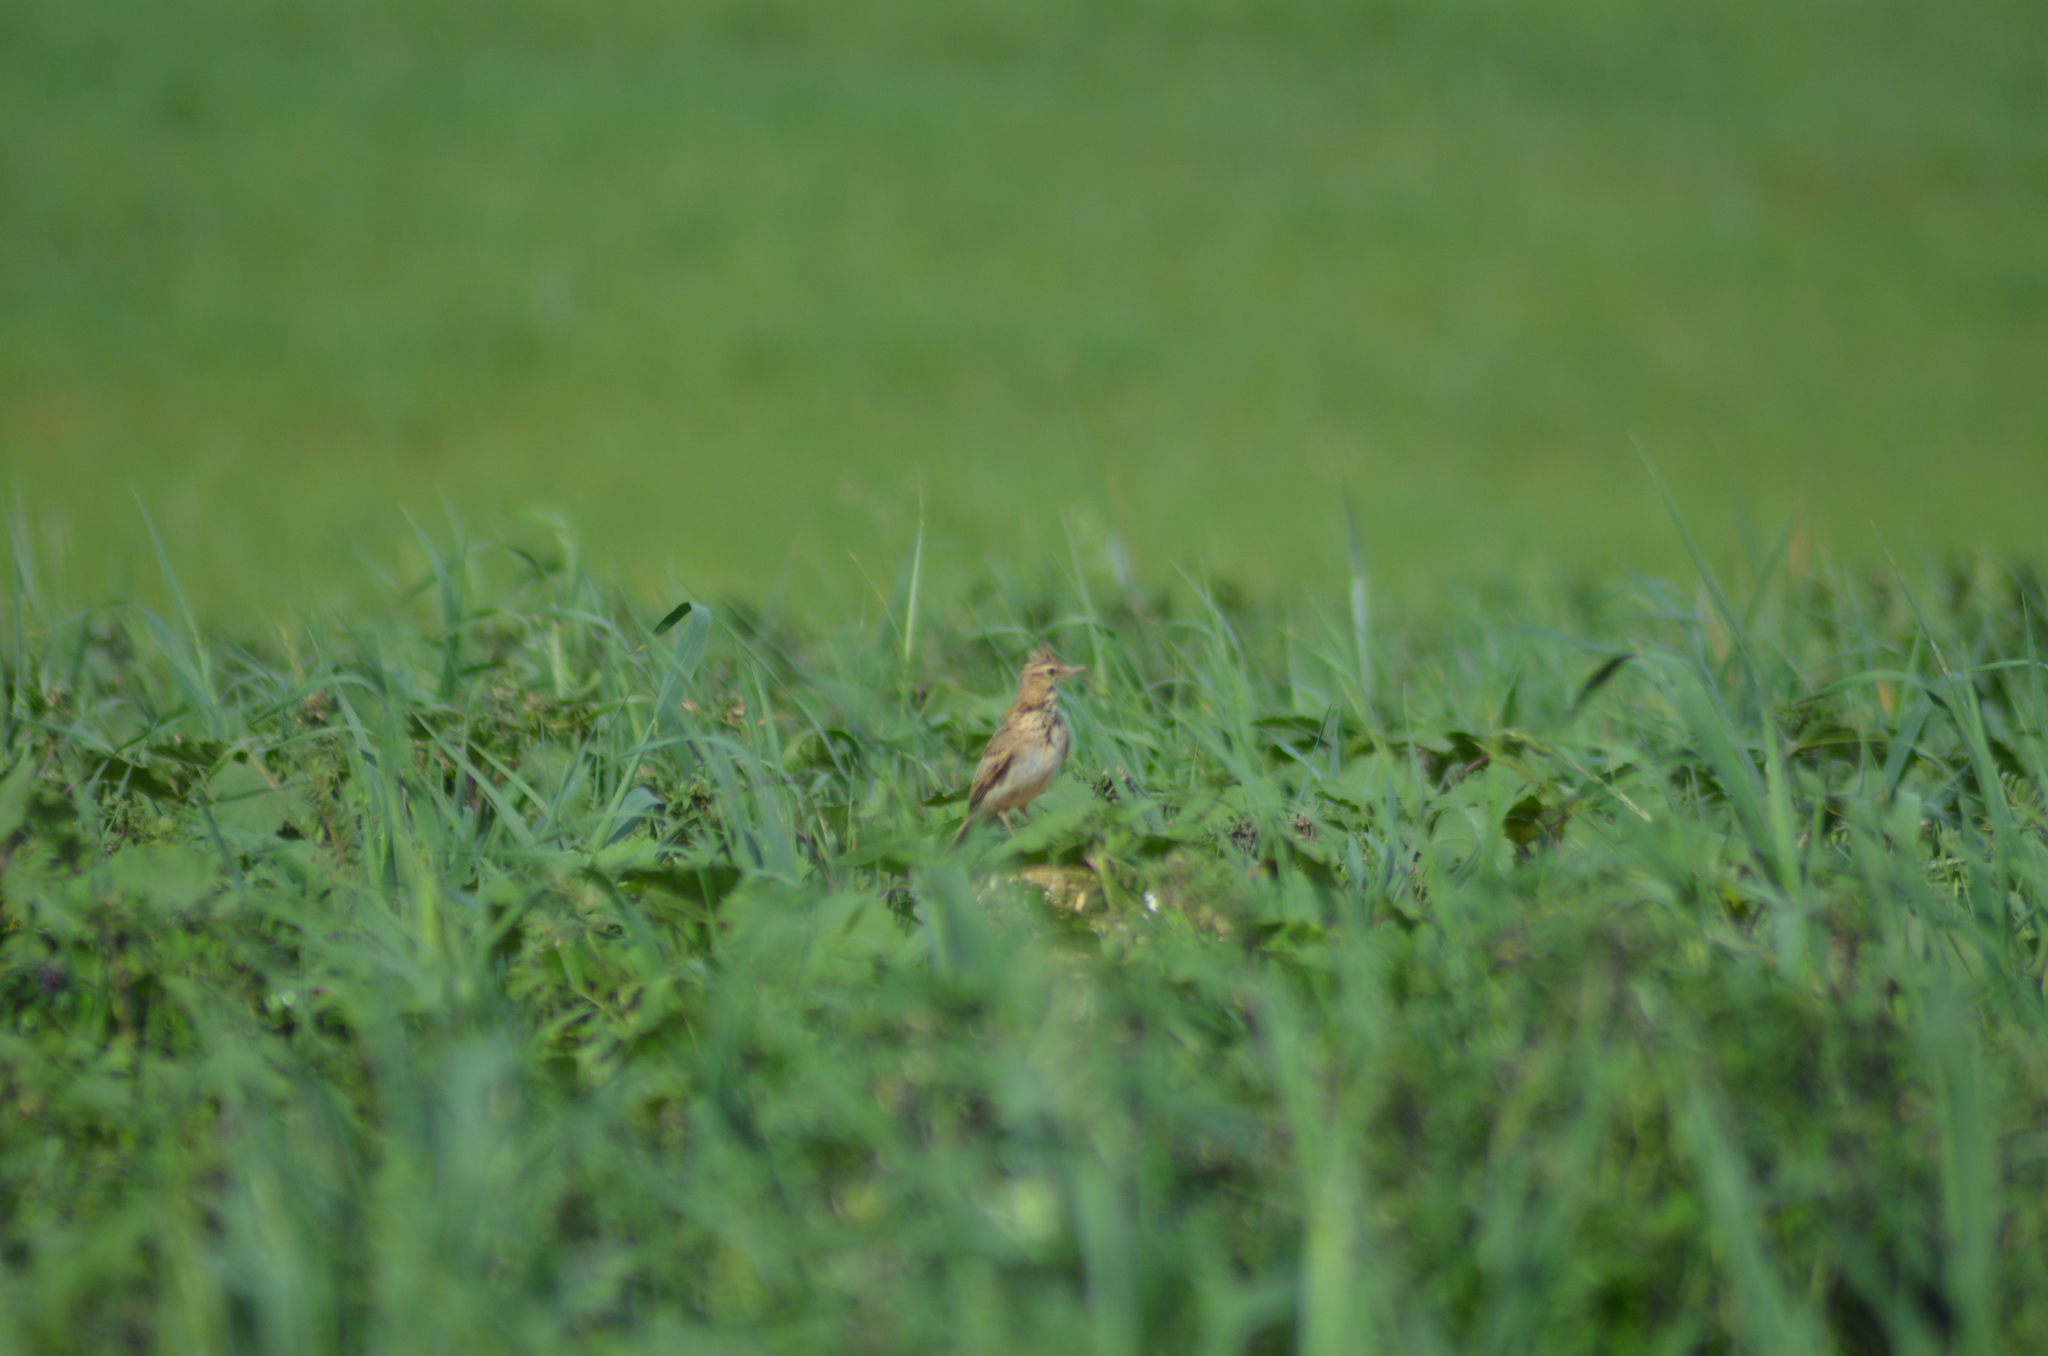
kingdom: Animalia
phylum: Chordata
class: Aves
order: Passeriformes
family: Alaudidae
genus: Galerida
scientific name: Galerida cristata
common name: Crested lark
